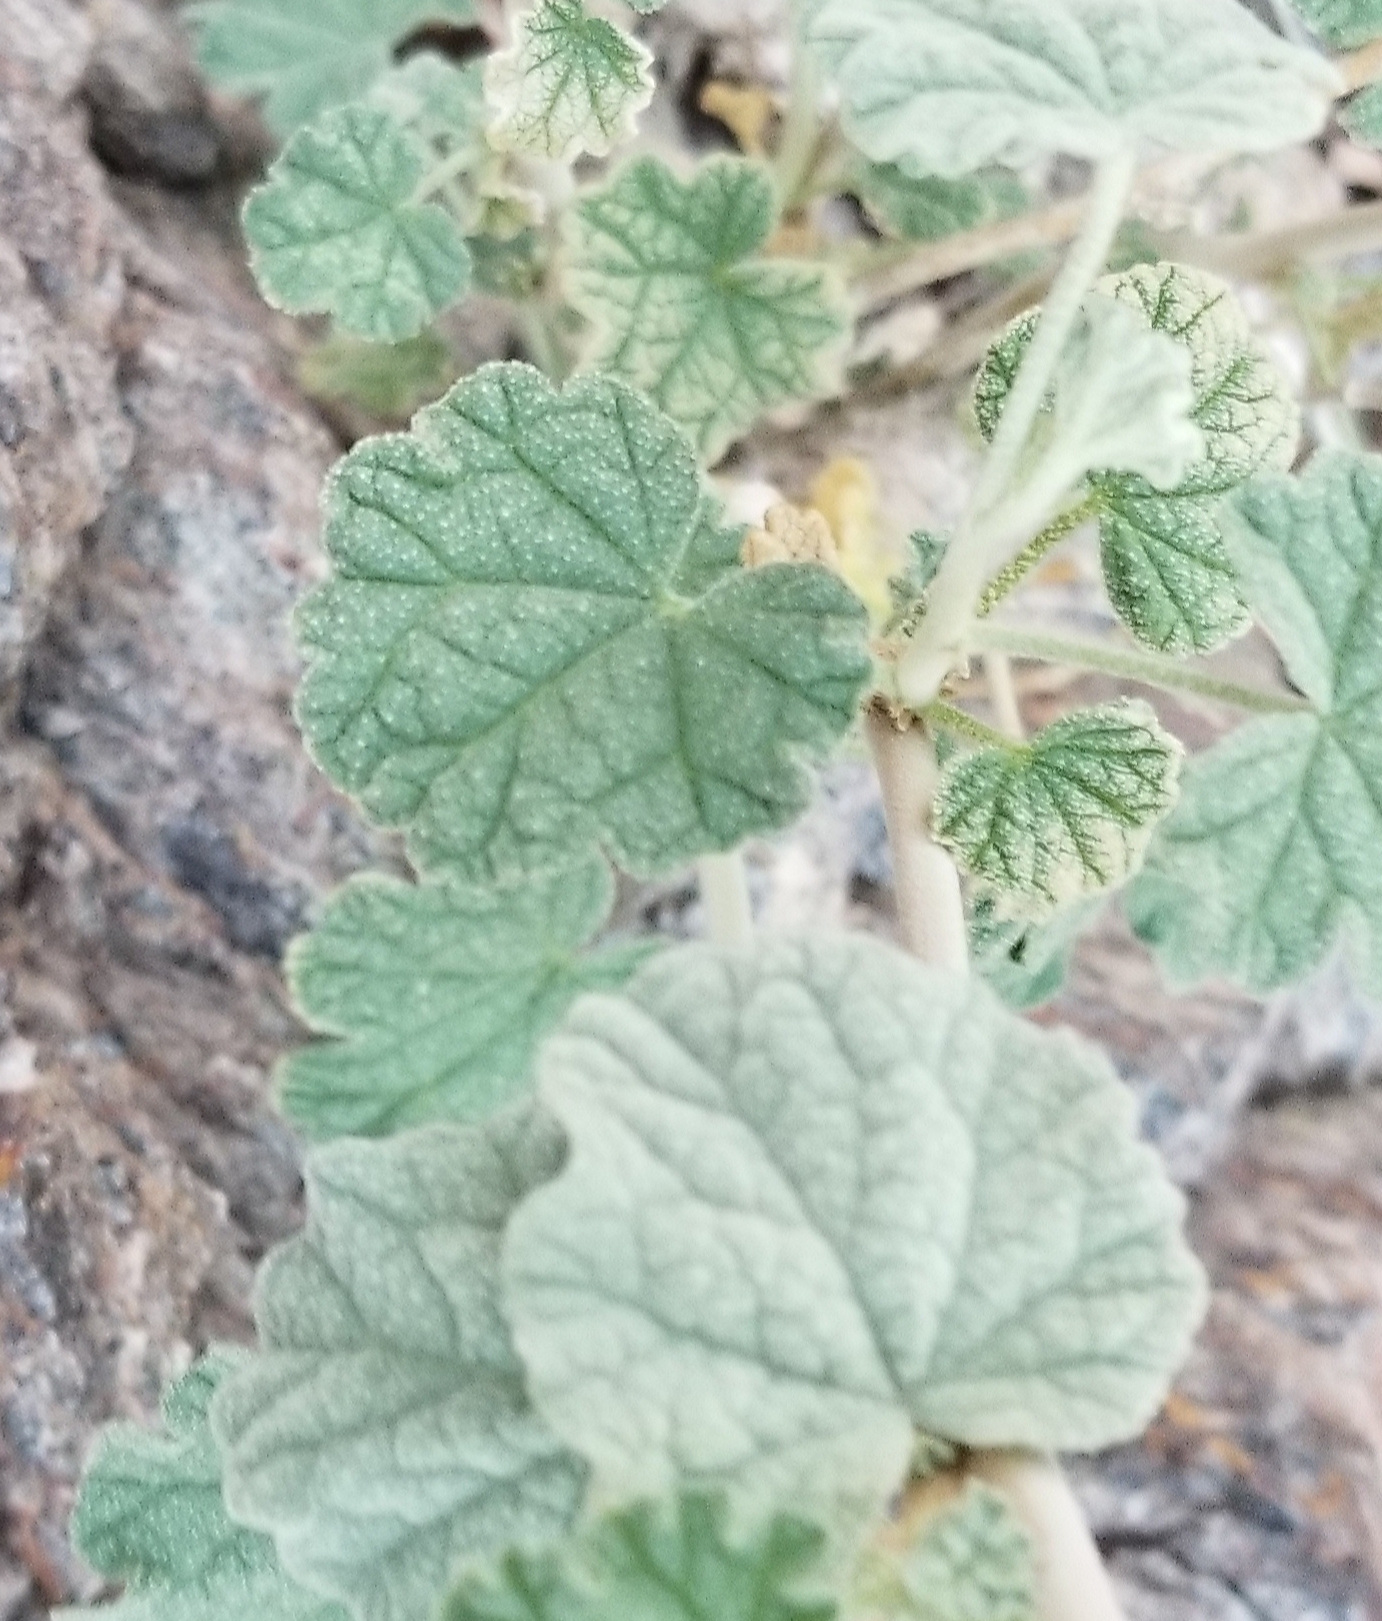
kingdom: Plantae
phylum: Tracheophyta
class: Magnoliopsida
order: Malvales
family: Malvaceae
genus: Sphaeralcea
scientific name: Sphaeralcea ambigua
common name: Apricot globe-mallow
